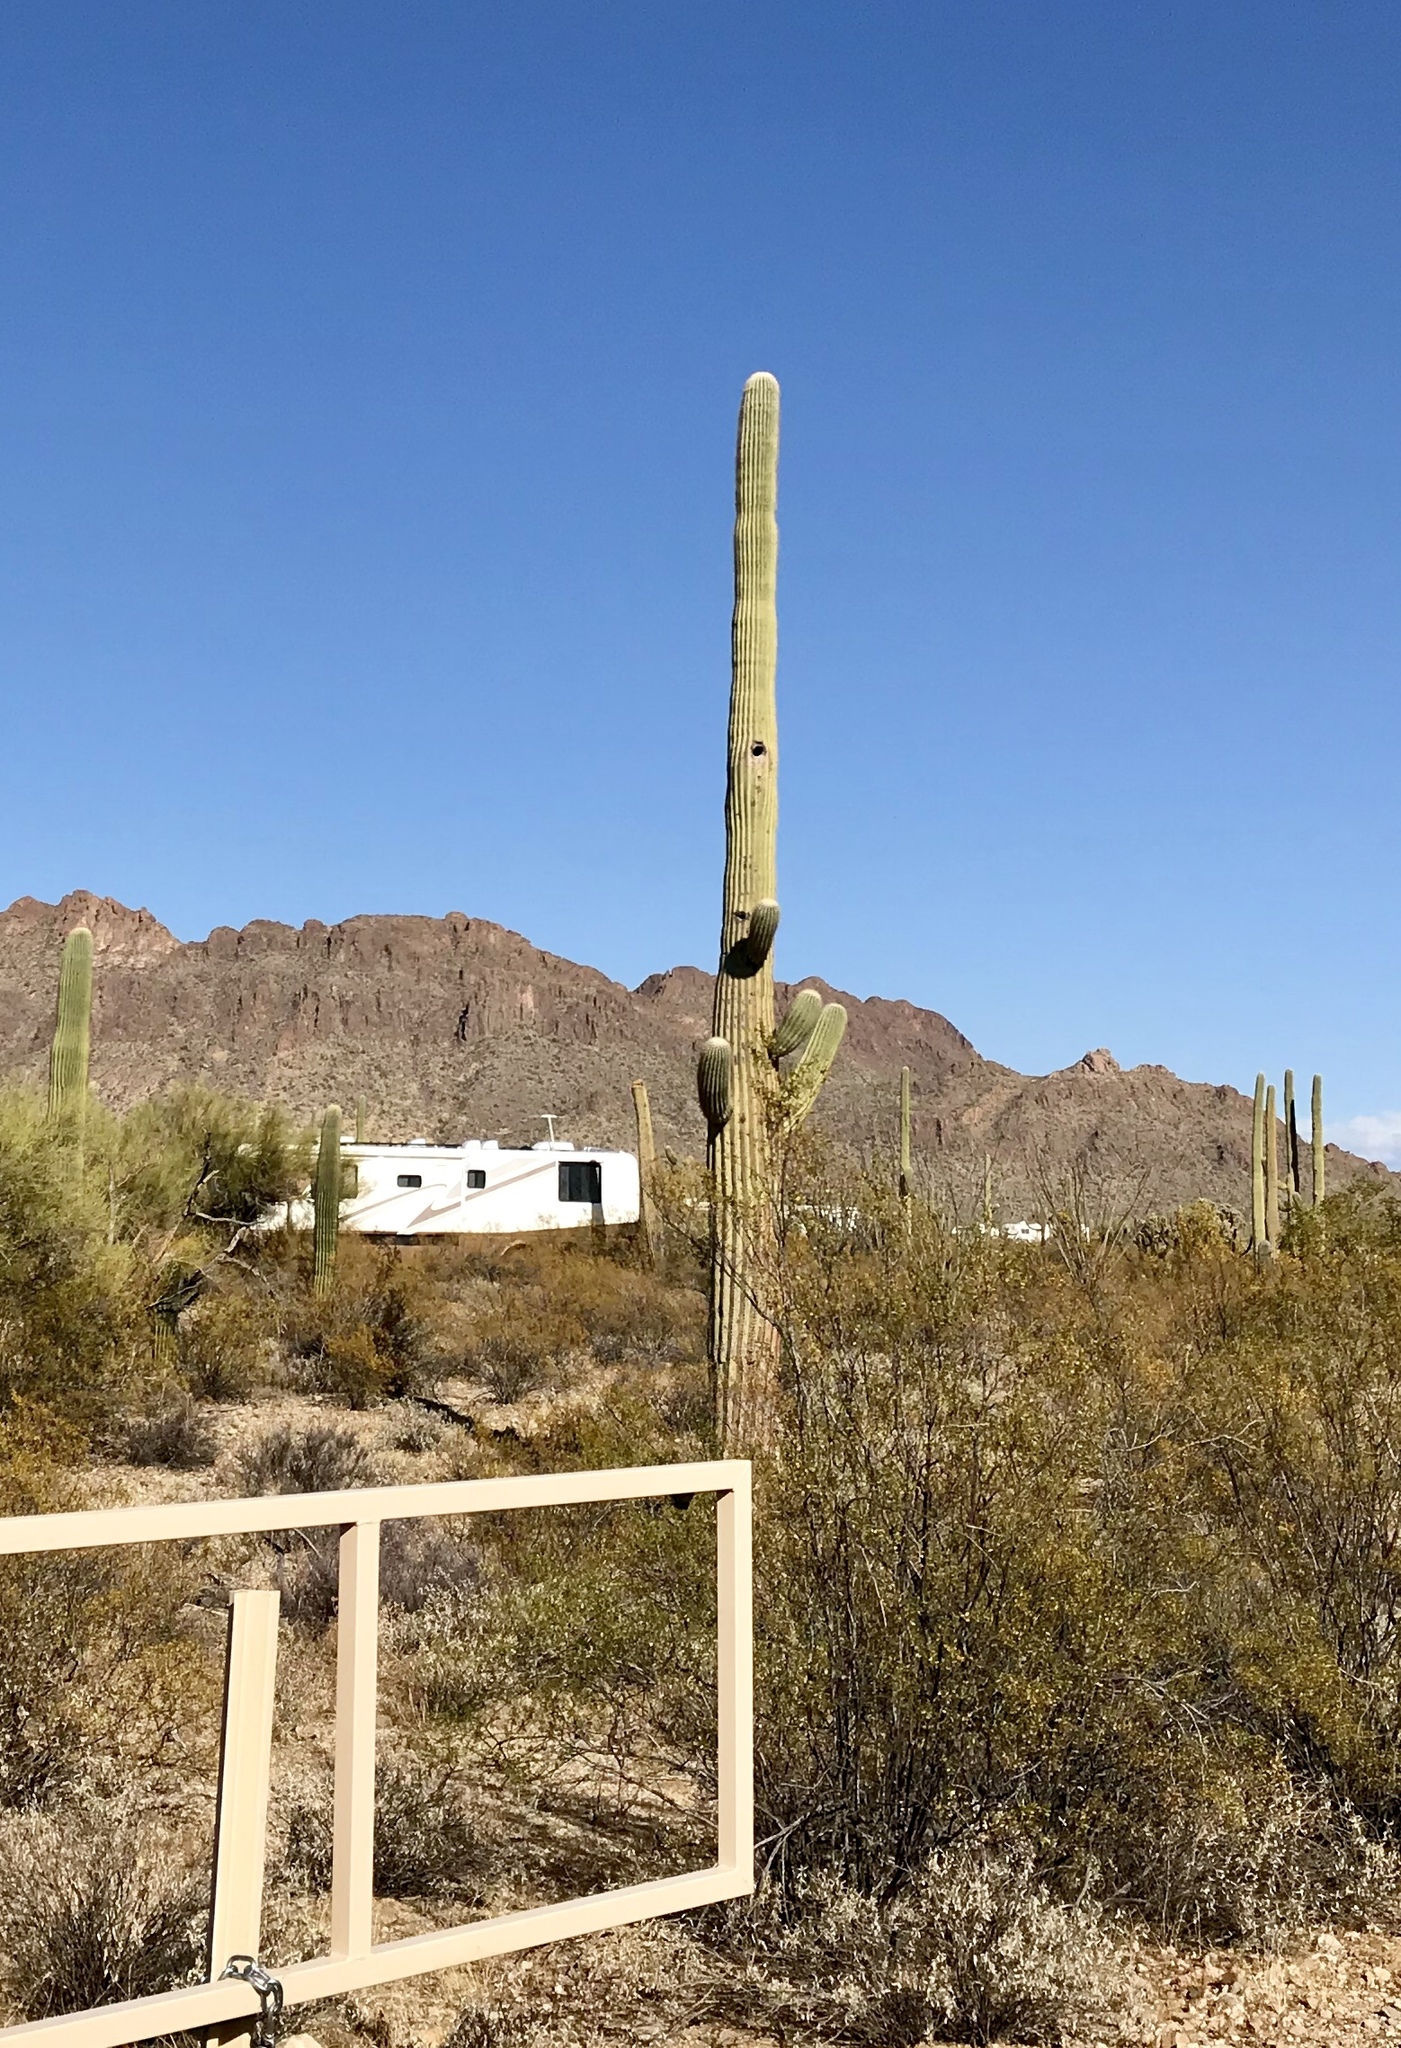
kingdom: Plantae
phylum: Tracheophyta
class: Magnoliopsida
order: Caryophyllales
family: Cactaceae
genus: Carnegiea
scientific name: Carnegiea gigantea
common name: Saguaro
